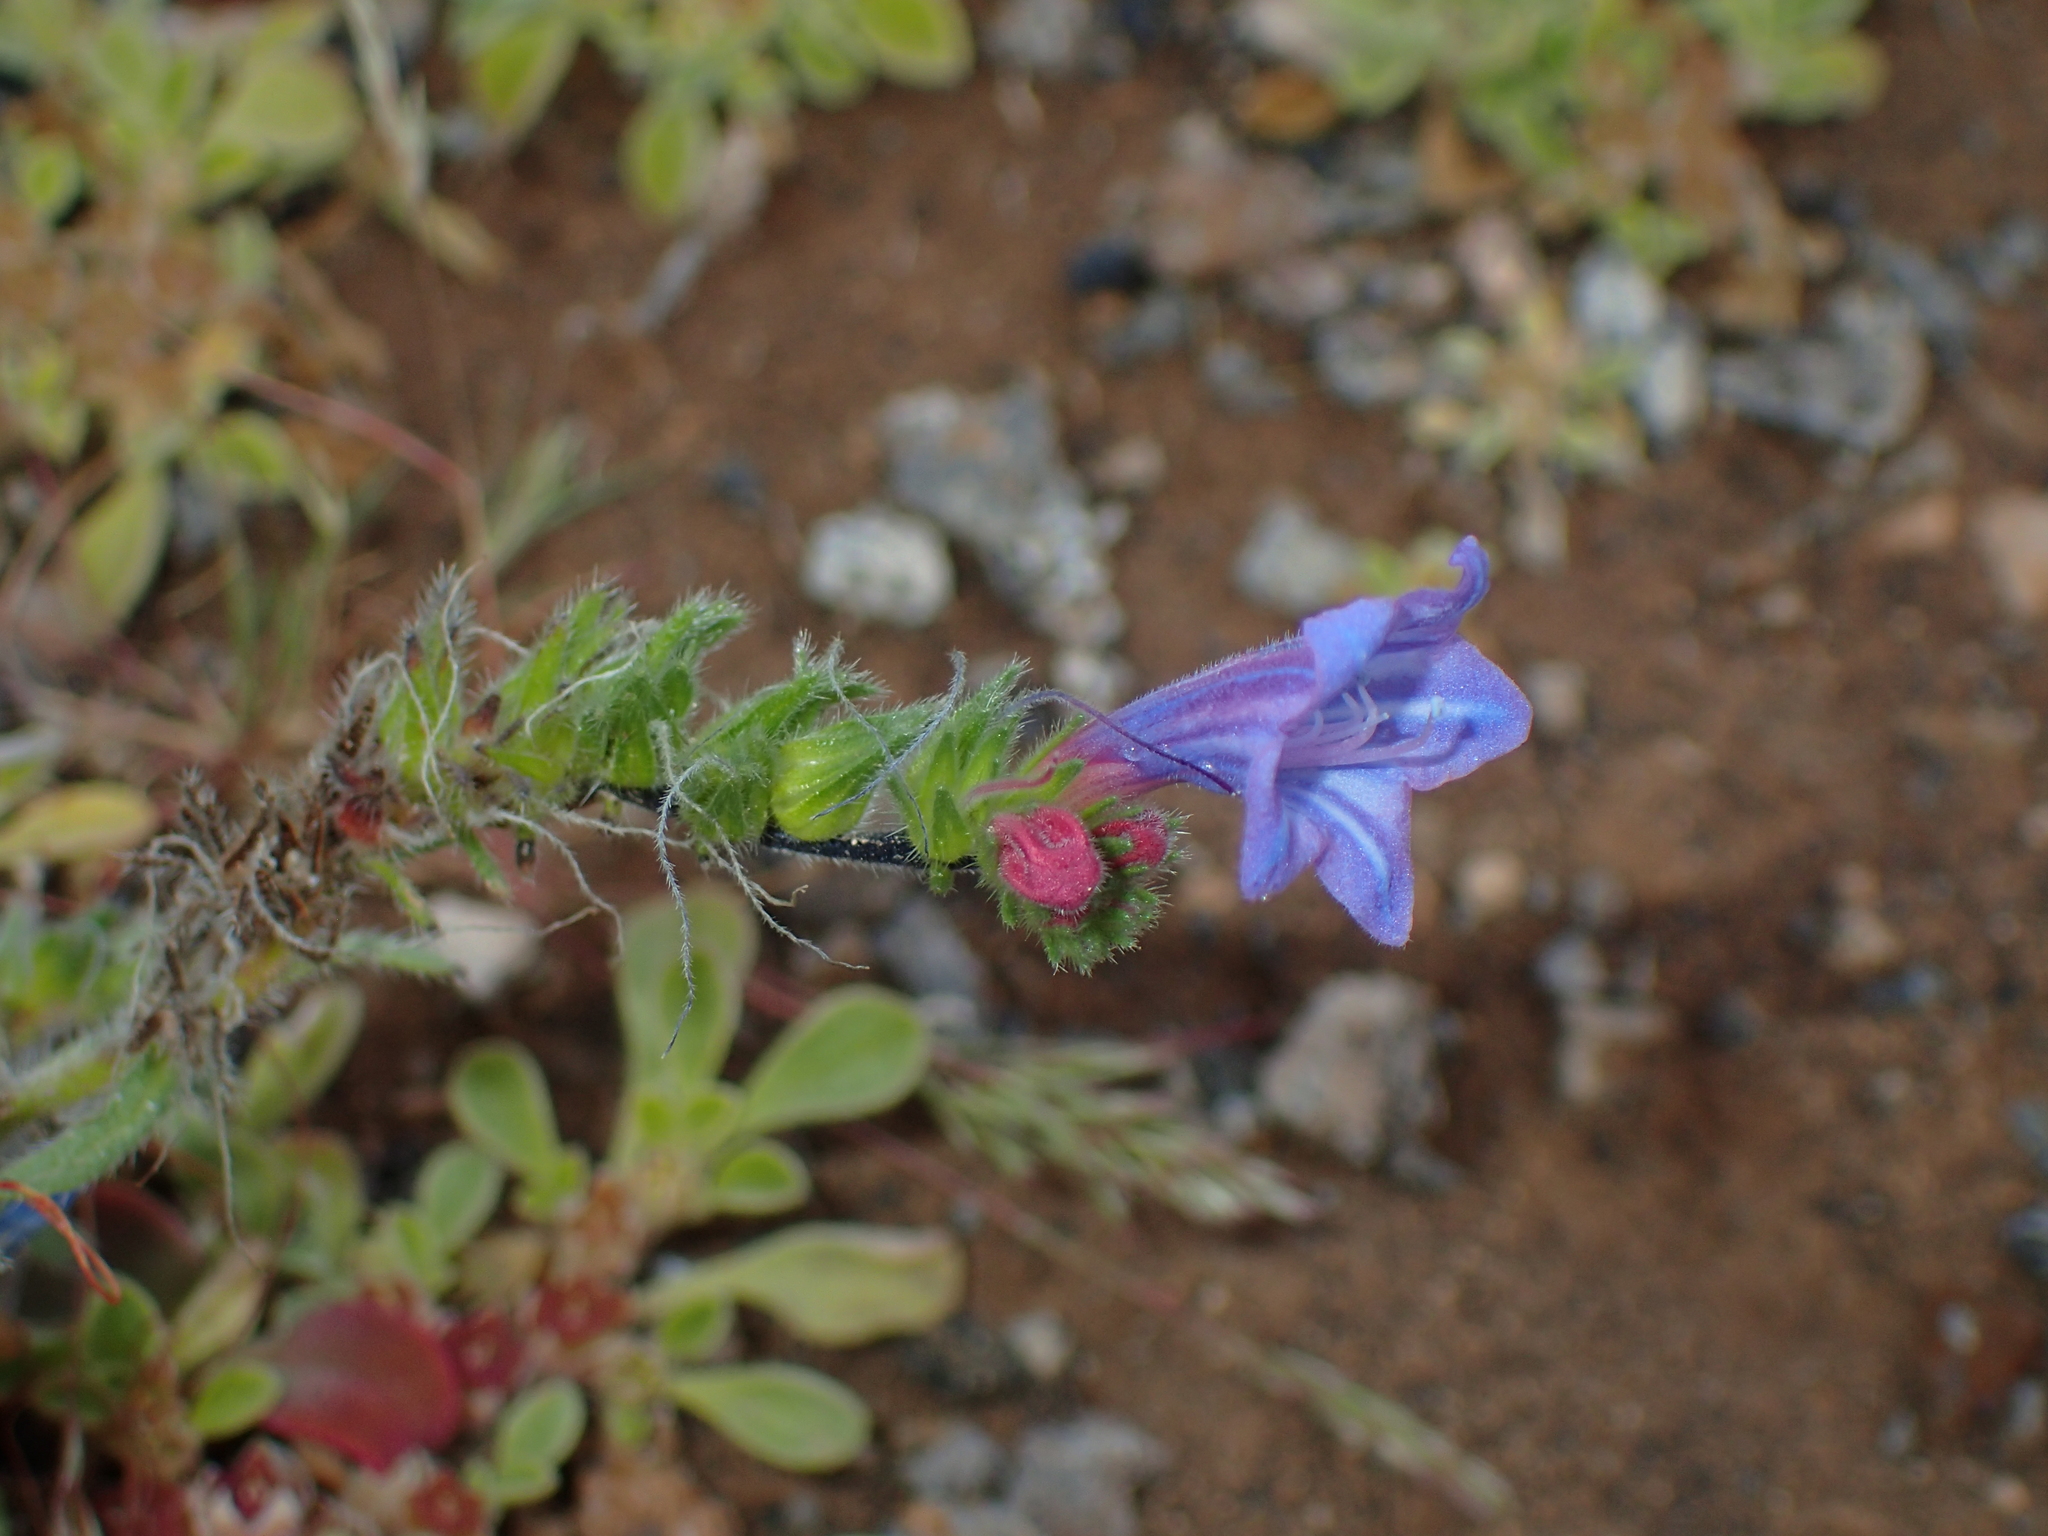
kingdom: Plantae
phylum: Tracheophyta
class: Magnoliopsida
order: Boraginales
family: Boraginaceae
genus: Echium
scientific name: Echium pitardii
